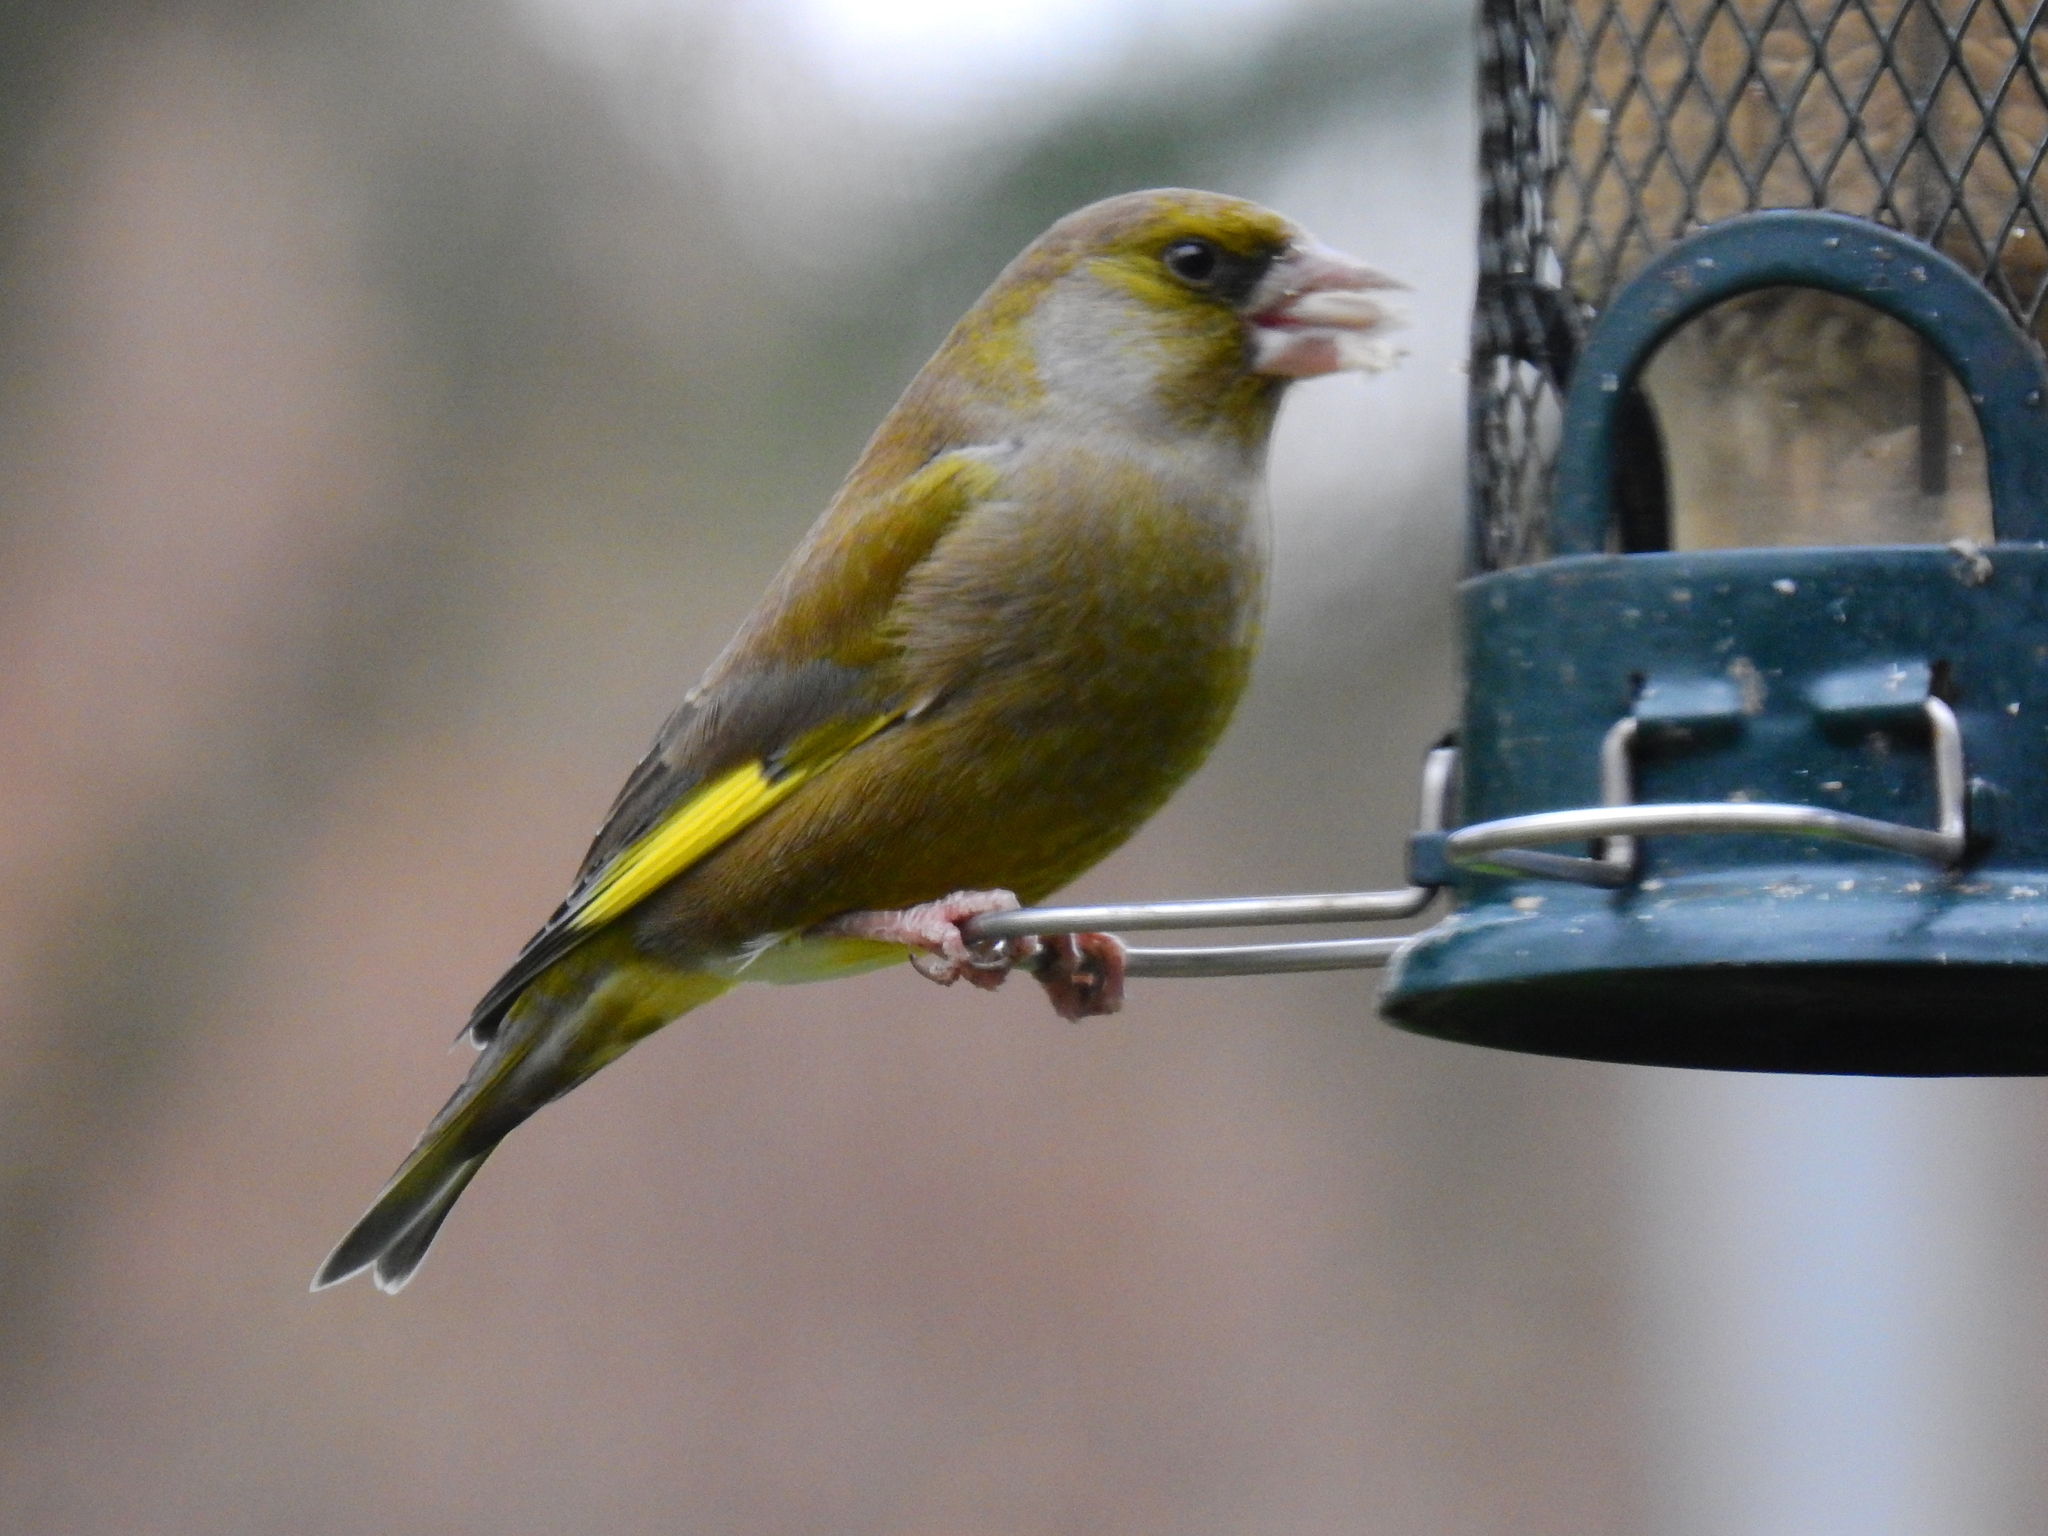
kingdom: Plantae
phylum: Tracheophyta
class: Liliopsida
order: Poales
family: Poaceae
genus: Chloris
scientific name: Chloris chloris
